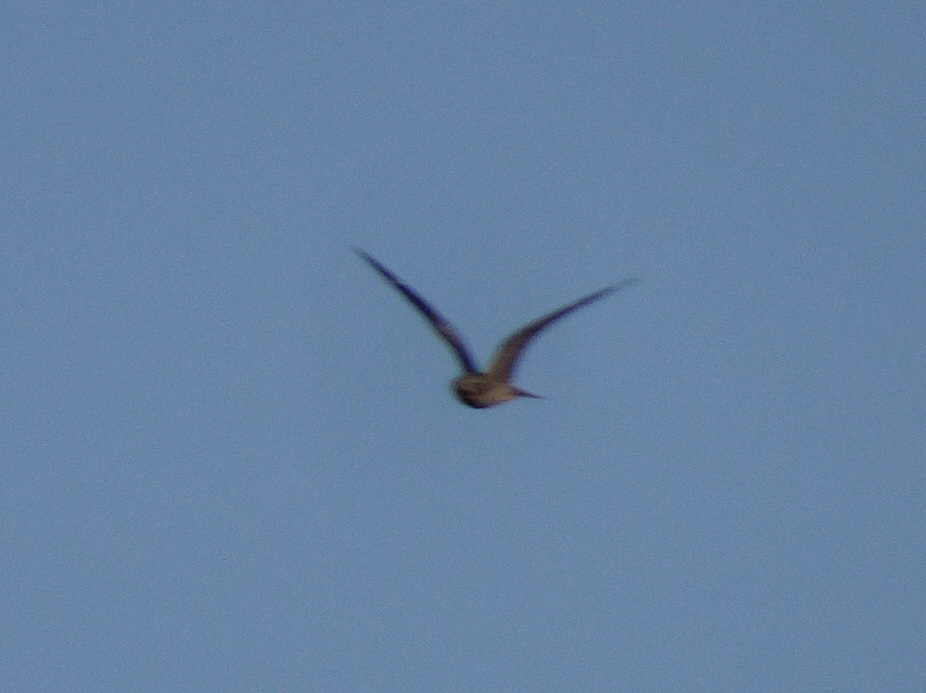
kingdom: Animalia
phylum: Chordata
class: Aves
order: Caprimulgiformes
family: Caprimulgidae
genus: Chordeiles
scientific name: Chordeiles minor
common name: Common nighthawk
